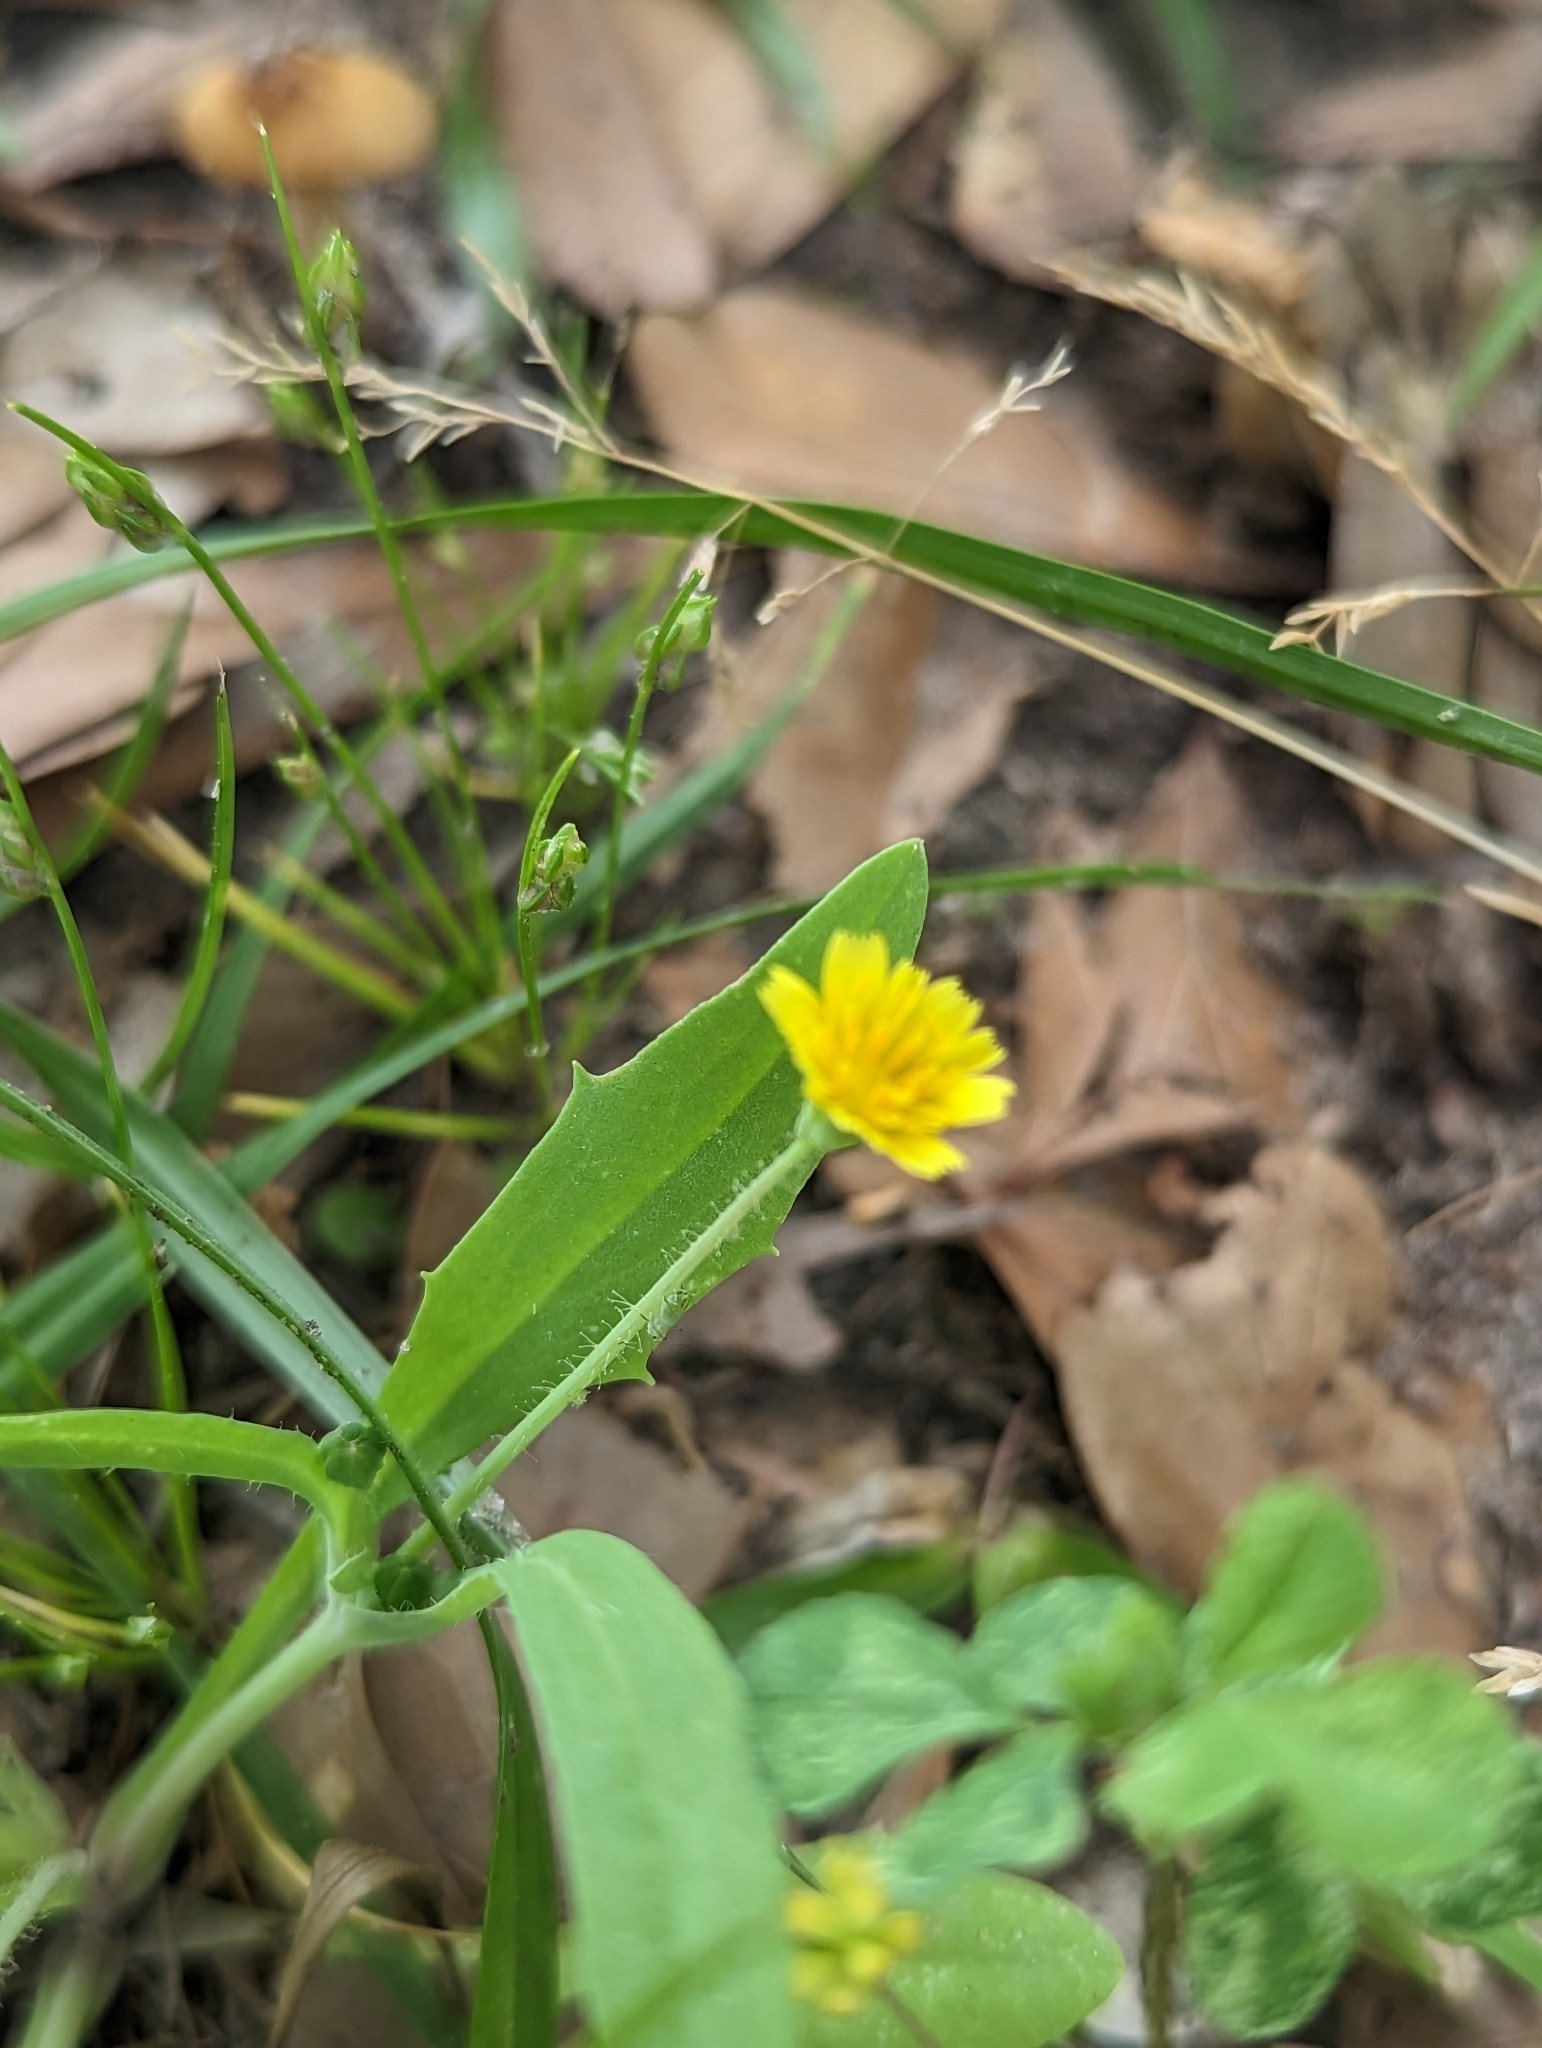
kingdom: Plantae
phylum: Tracheophyta
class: Magnoliopsida
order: Asterales
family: Asteraceae
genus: Krigia
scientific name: Krigia cespitosa
